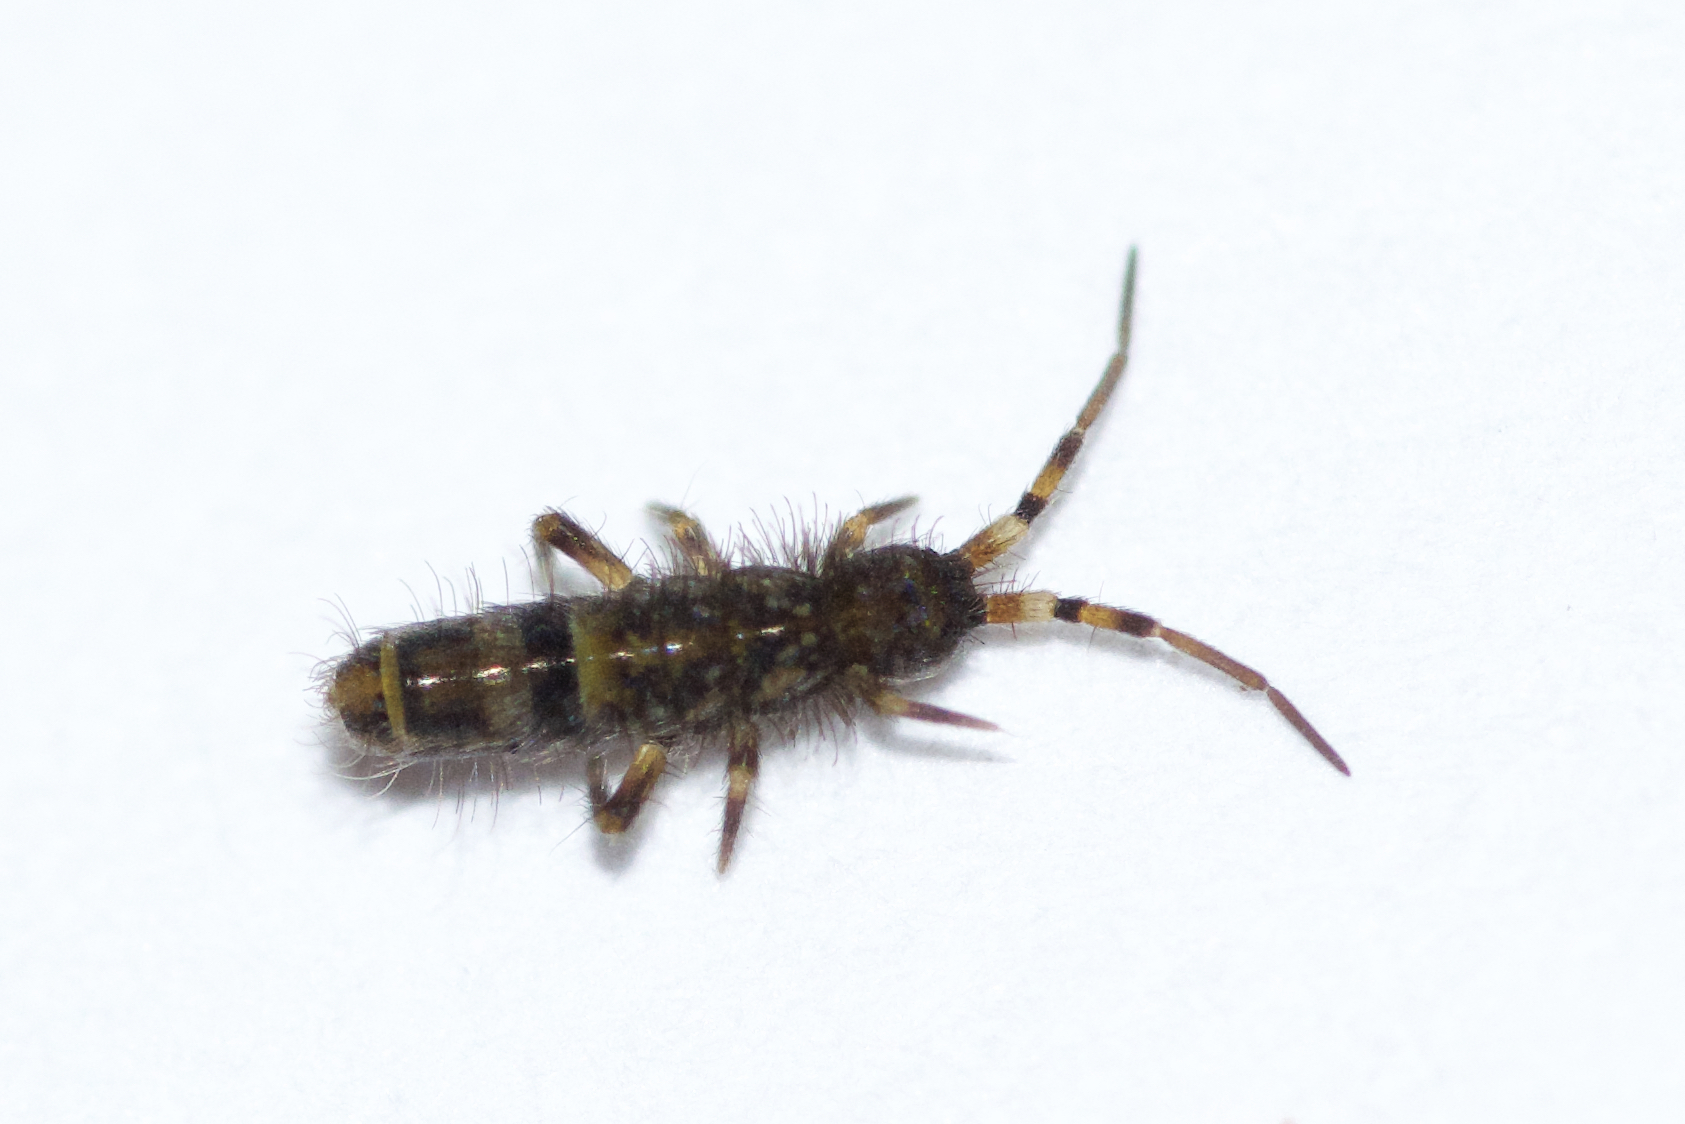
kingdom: Animalia
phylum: Arthropoda
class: Collembola
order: Entomobryomorpha
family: Orchesellidae
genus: Orchesella
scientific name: Orchesella cincta
